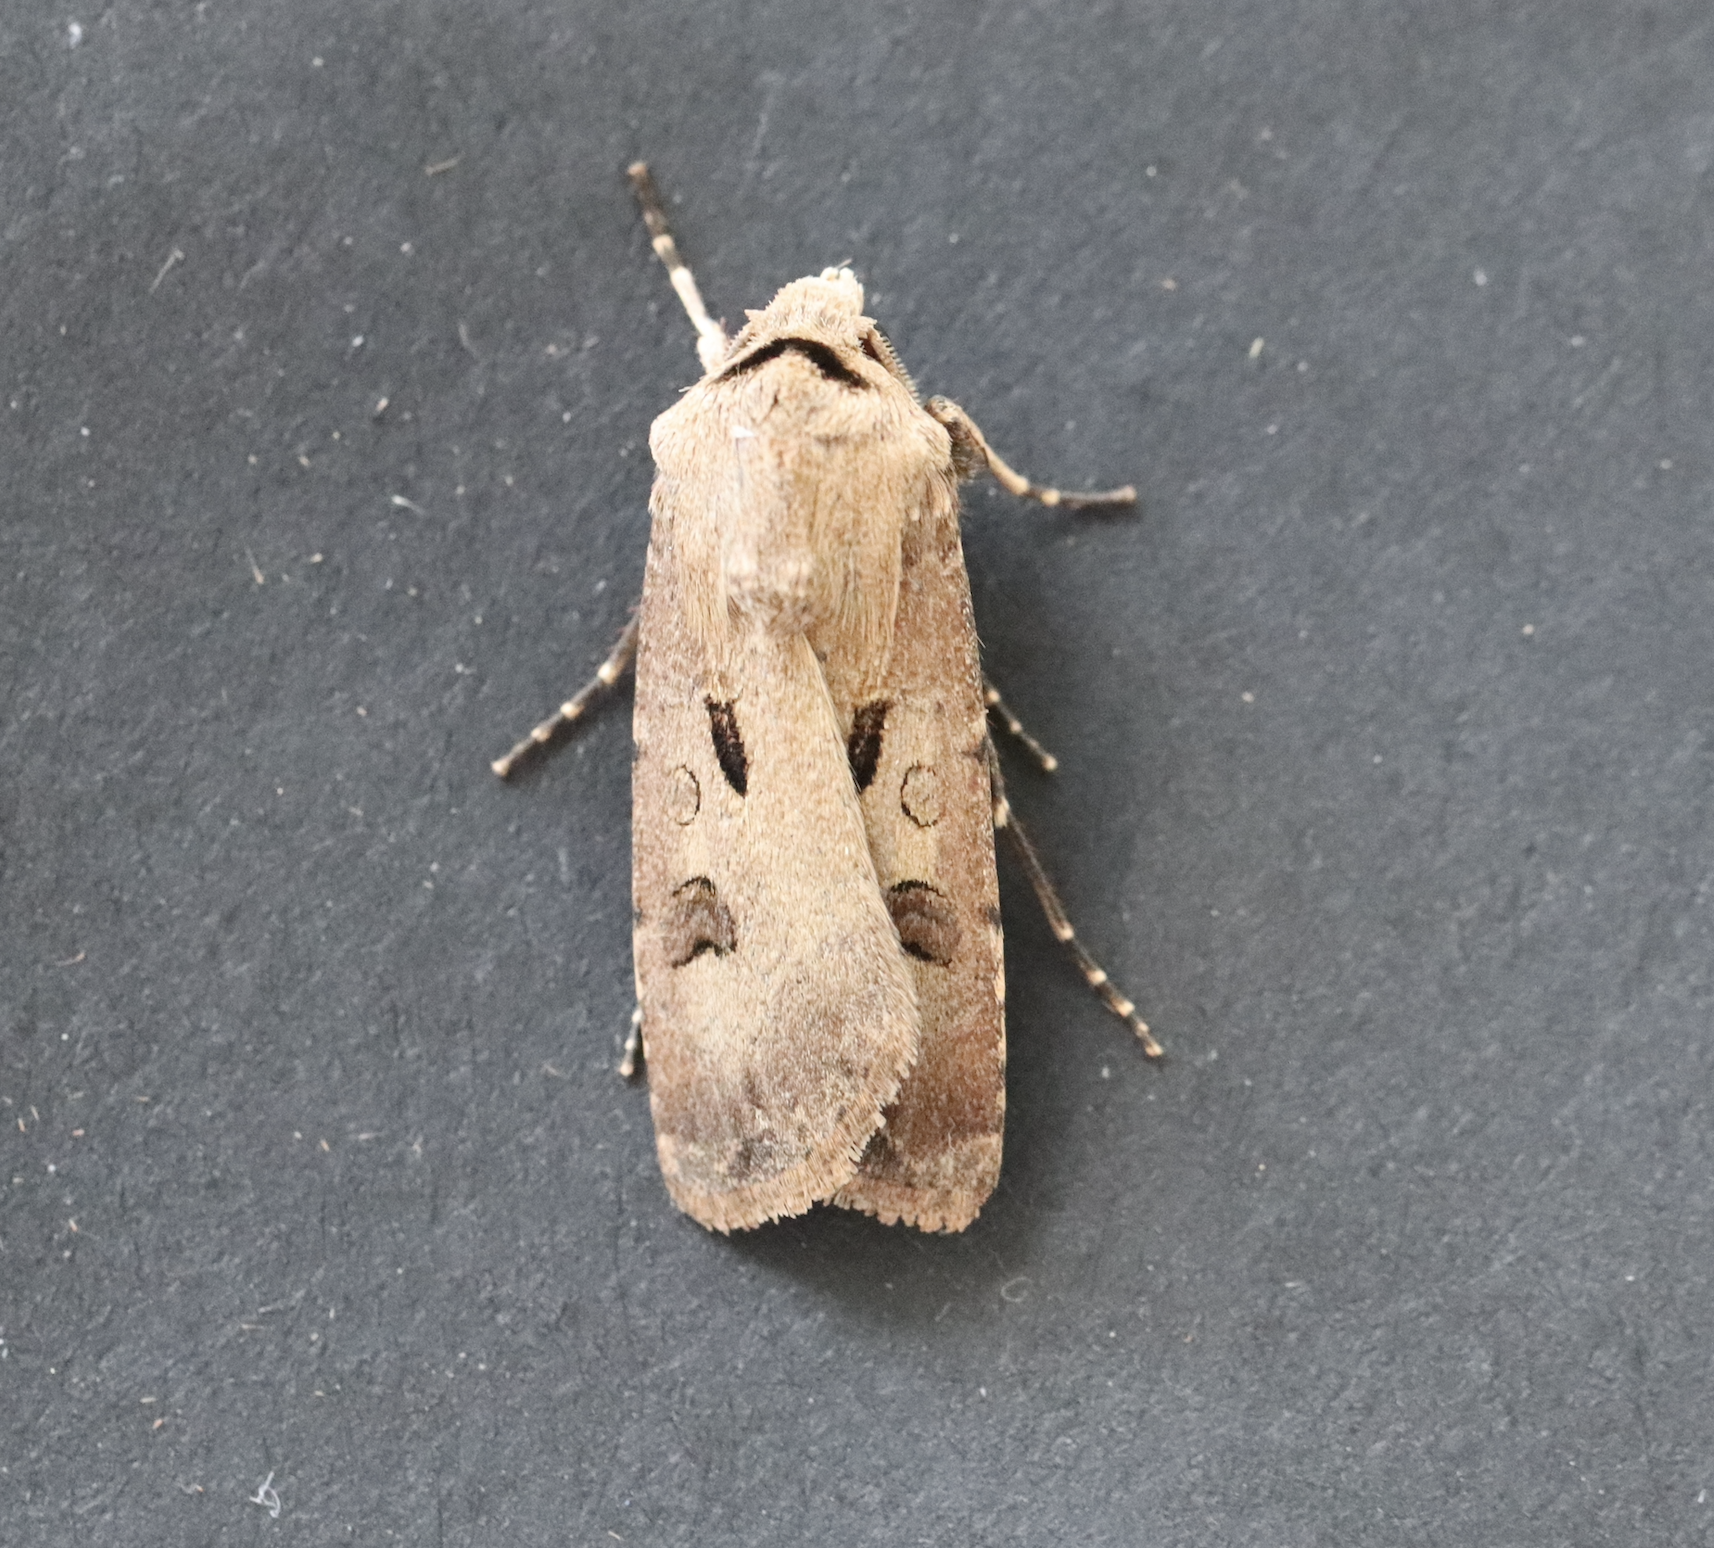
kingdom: Animalia
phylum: Arthropoda
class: Insecta
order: Lepidoptera
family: Noctuidae
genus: Agrotis
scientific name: Agrotis exclamationis
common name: Heart and dart
